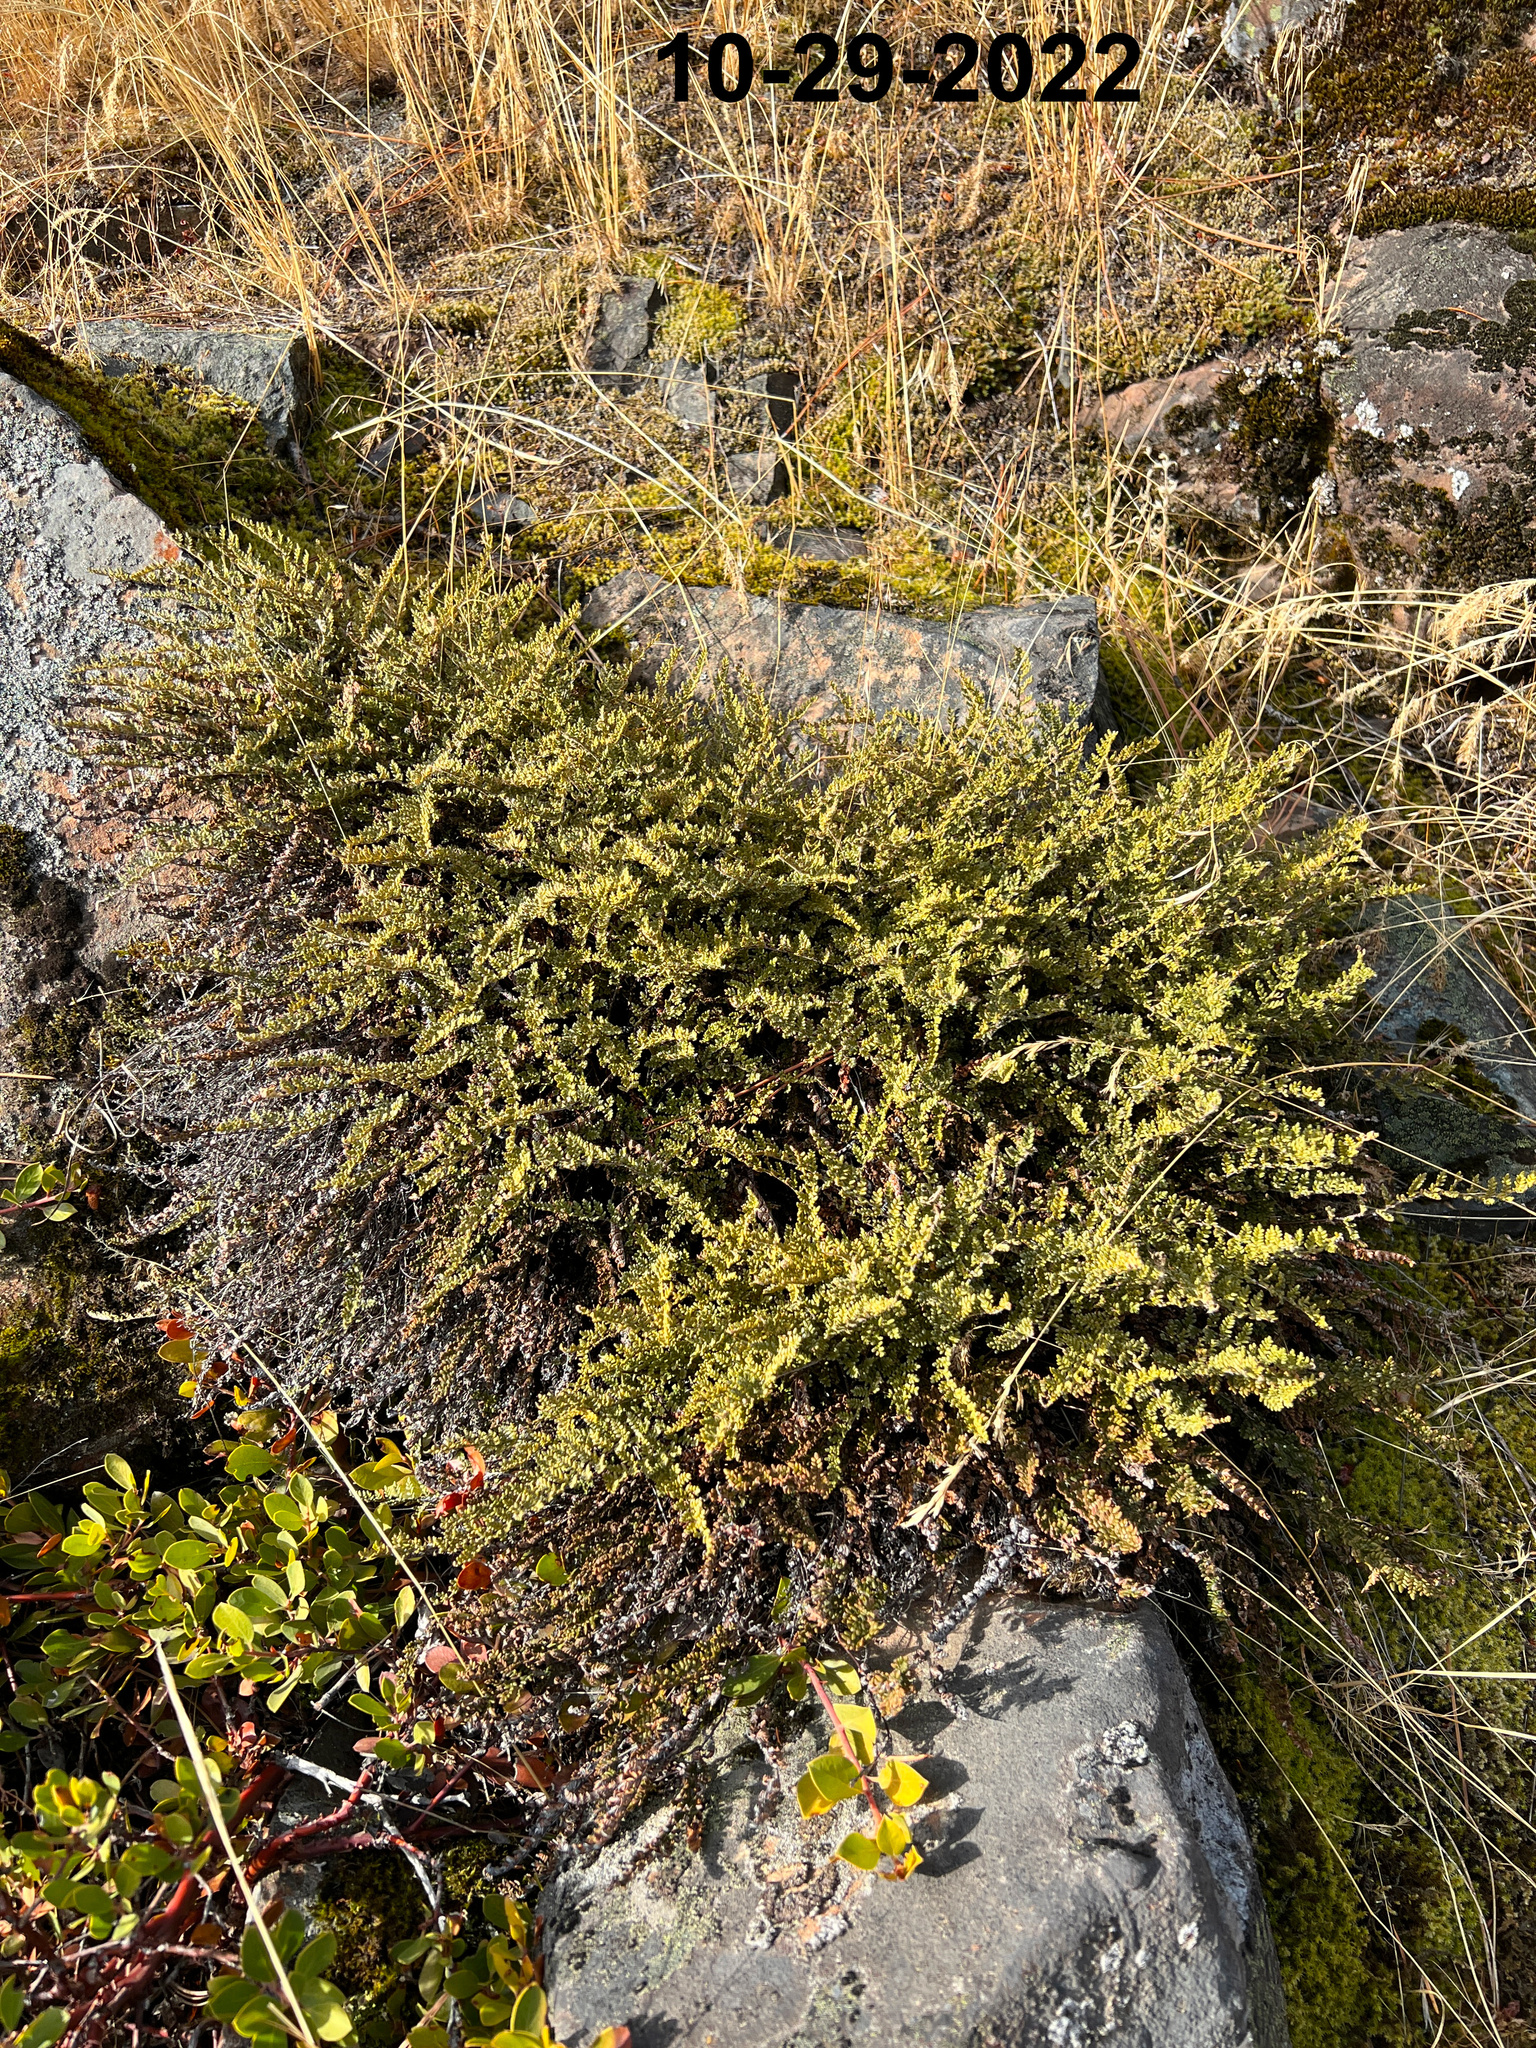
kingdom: Plantae
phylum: Tracheophyta
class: Polypodiopsida
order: Polypodiales
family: Pteridaceae
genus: Myriopteris
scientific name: Myriopteris gracillima
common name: Lace fern
